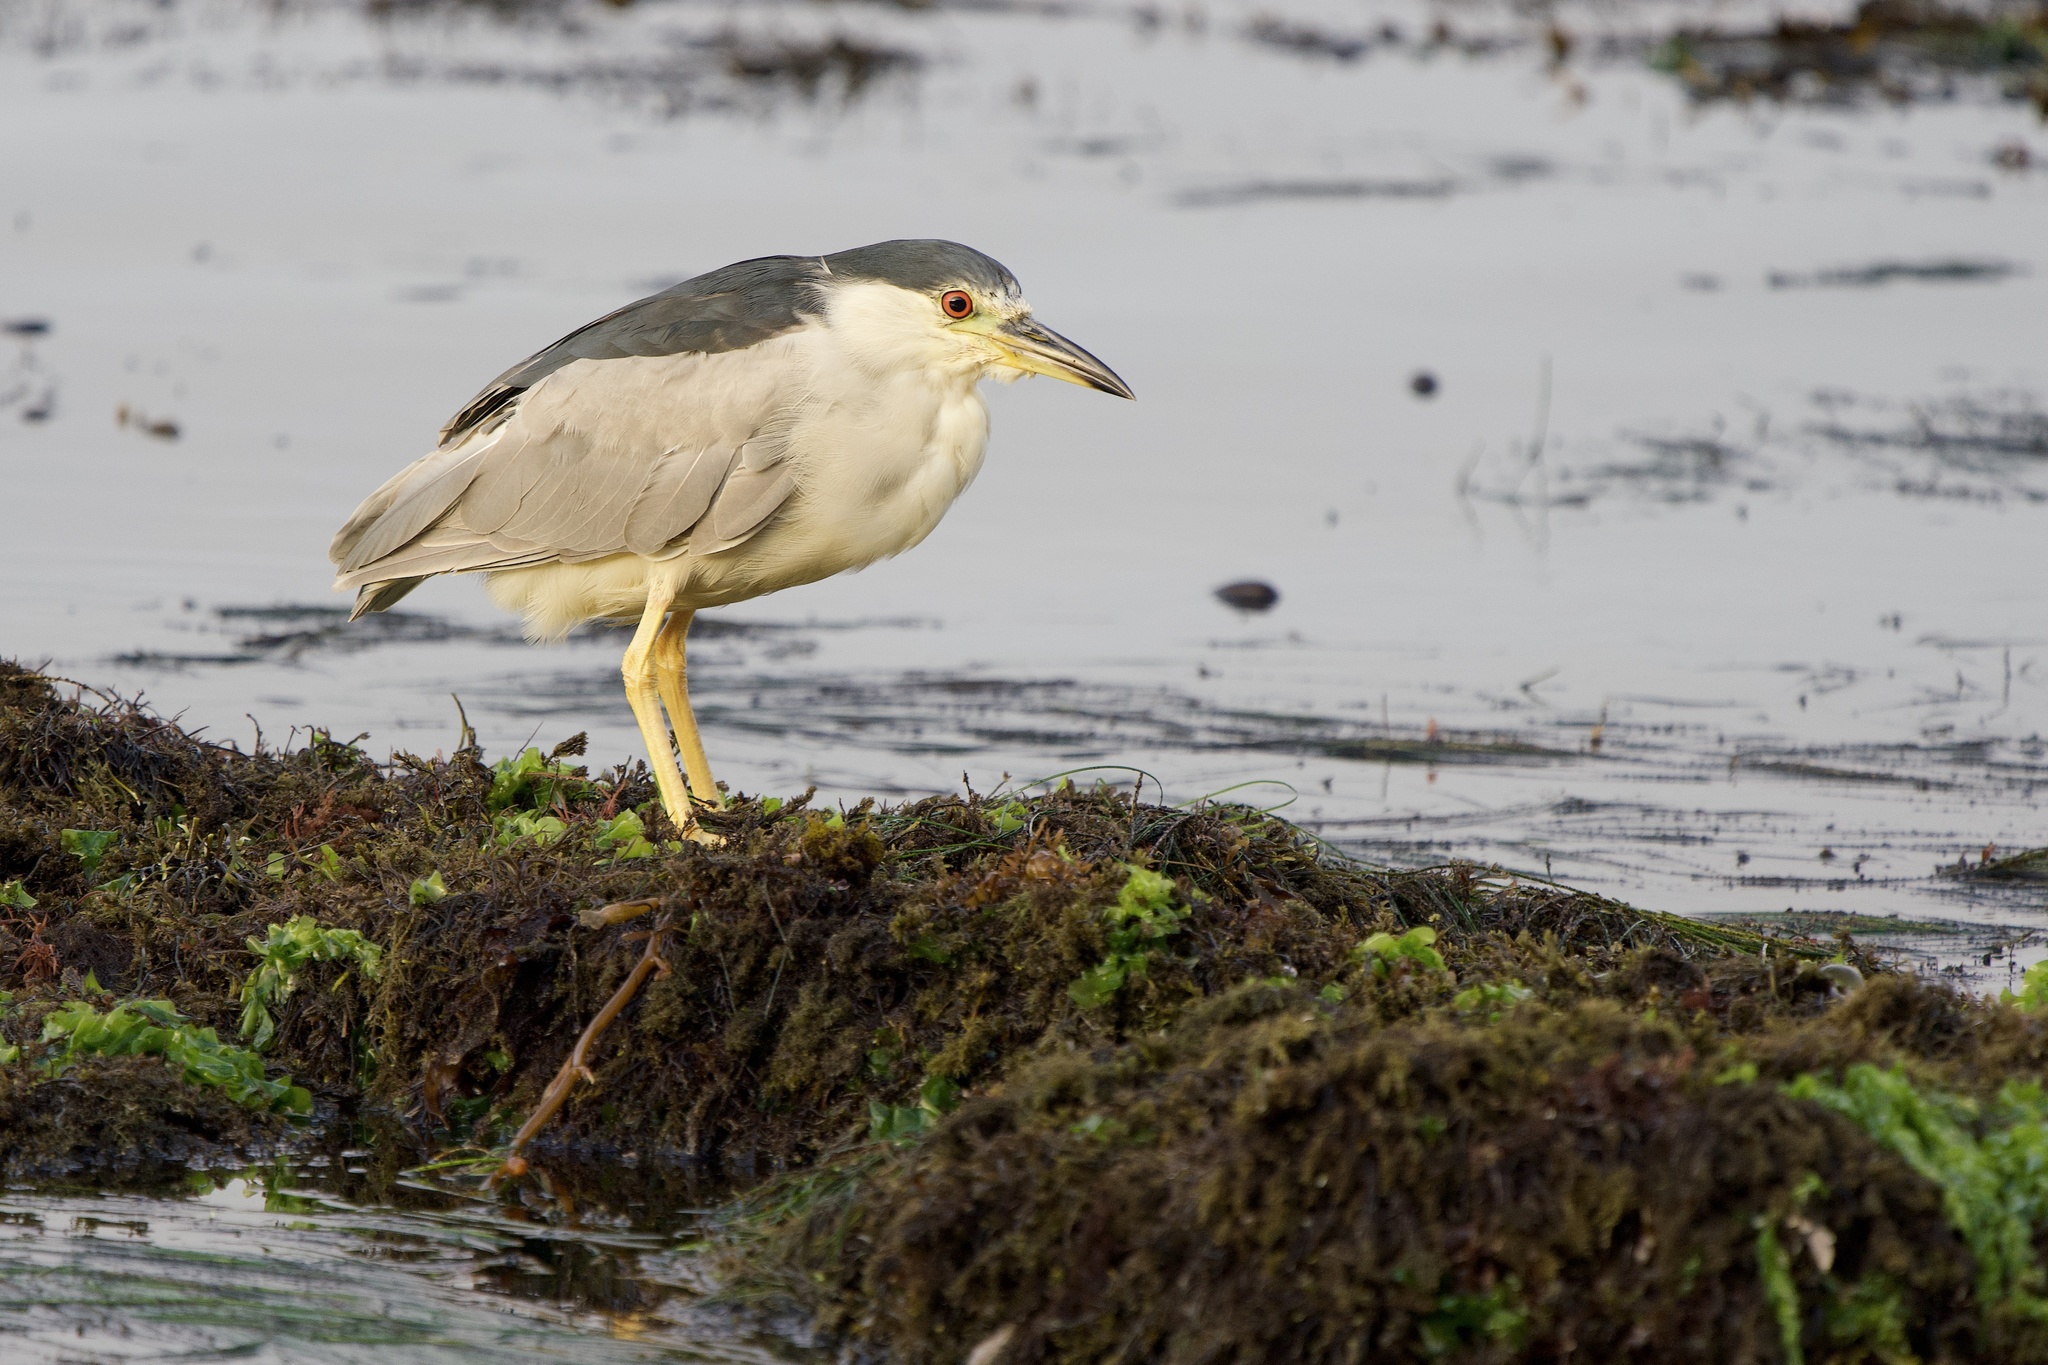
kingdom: Animalia
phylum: Chordata
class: Aves
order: Pelecaniformes
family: Ardeidae
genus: Nycticorax
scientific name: Nycticorax nycticorax
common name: Black-crowned night heron
